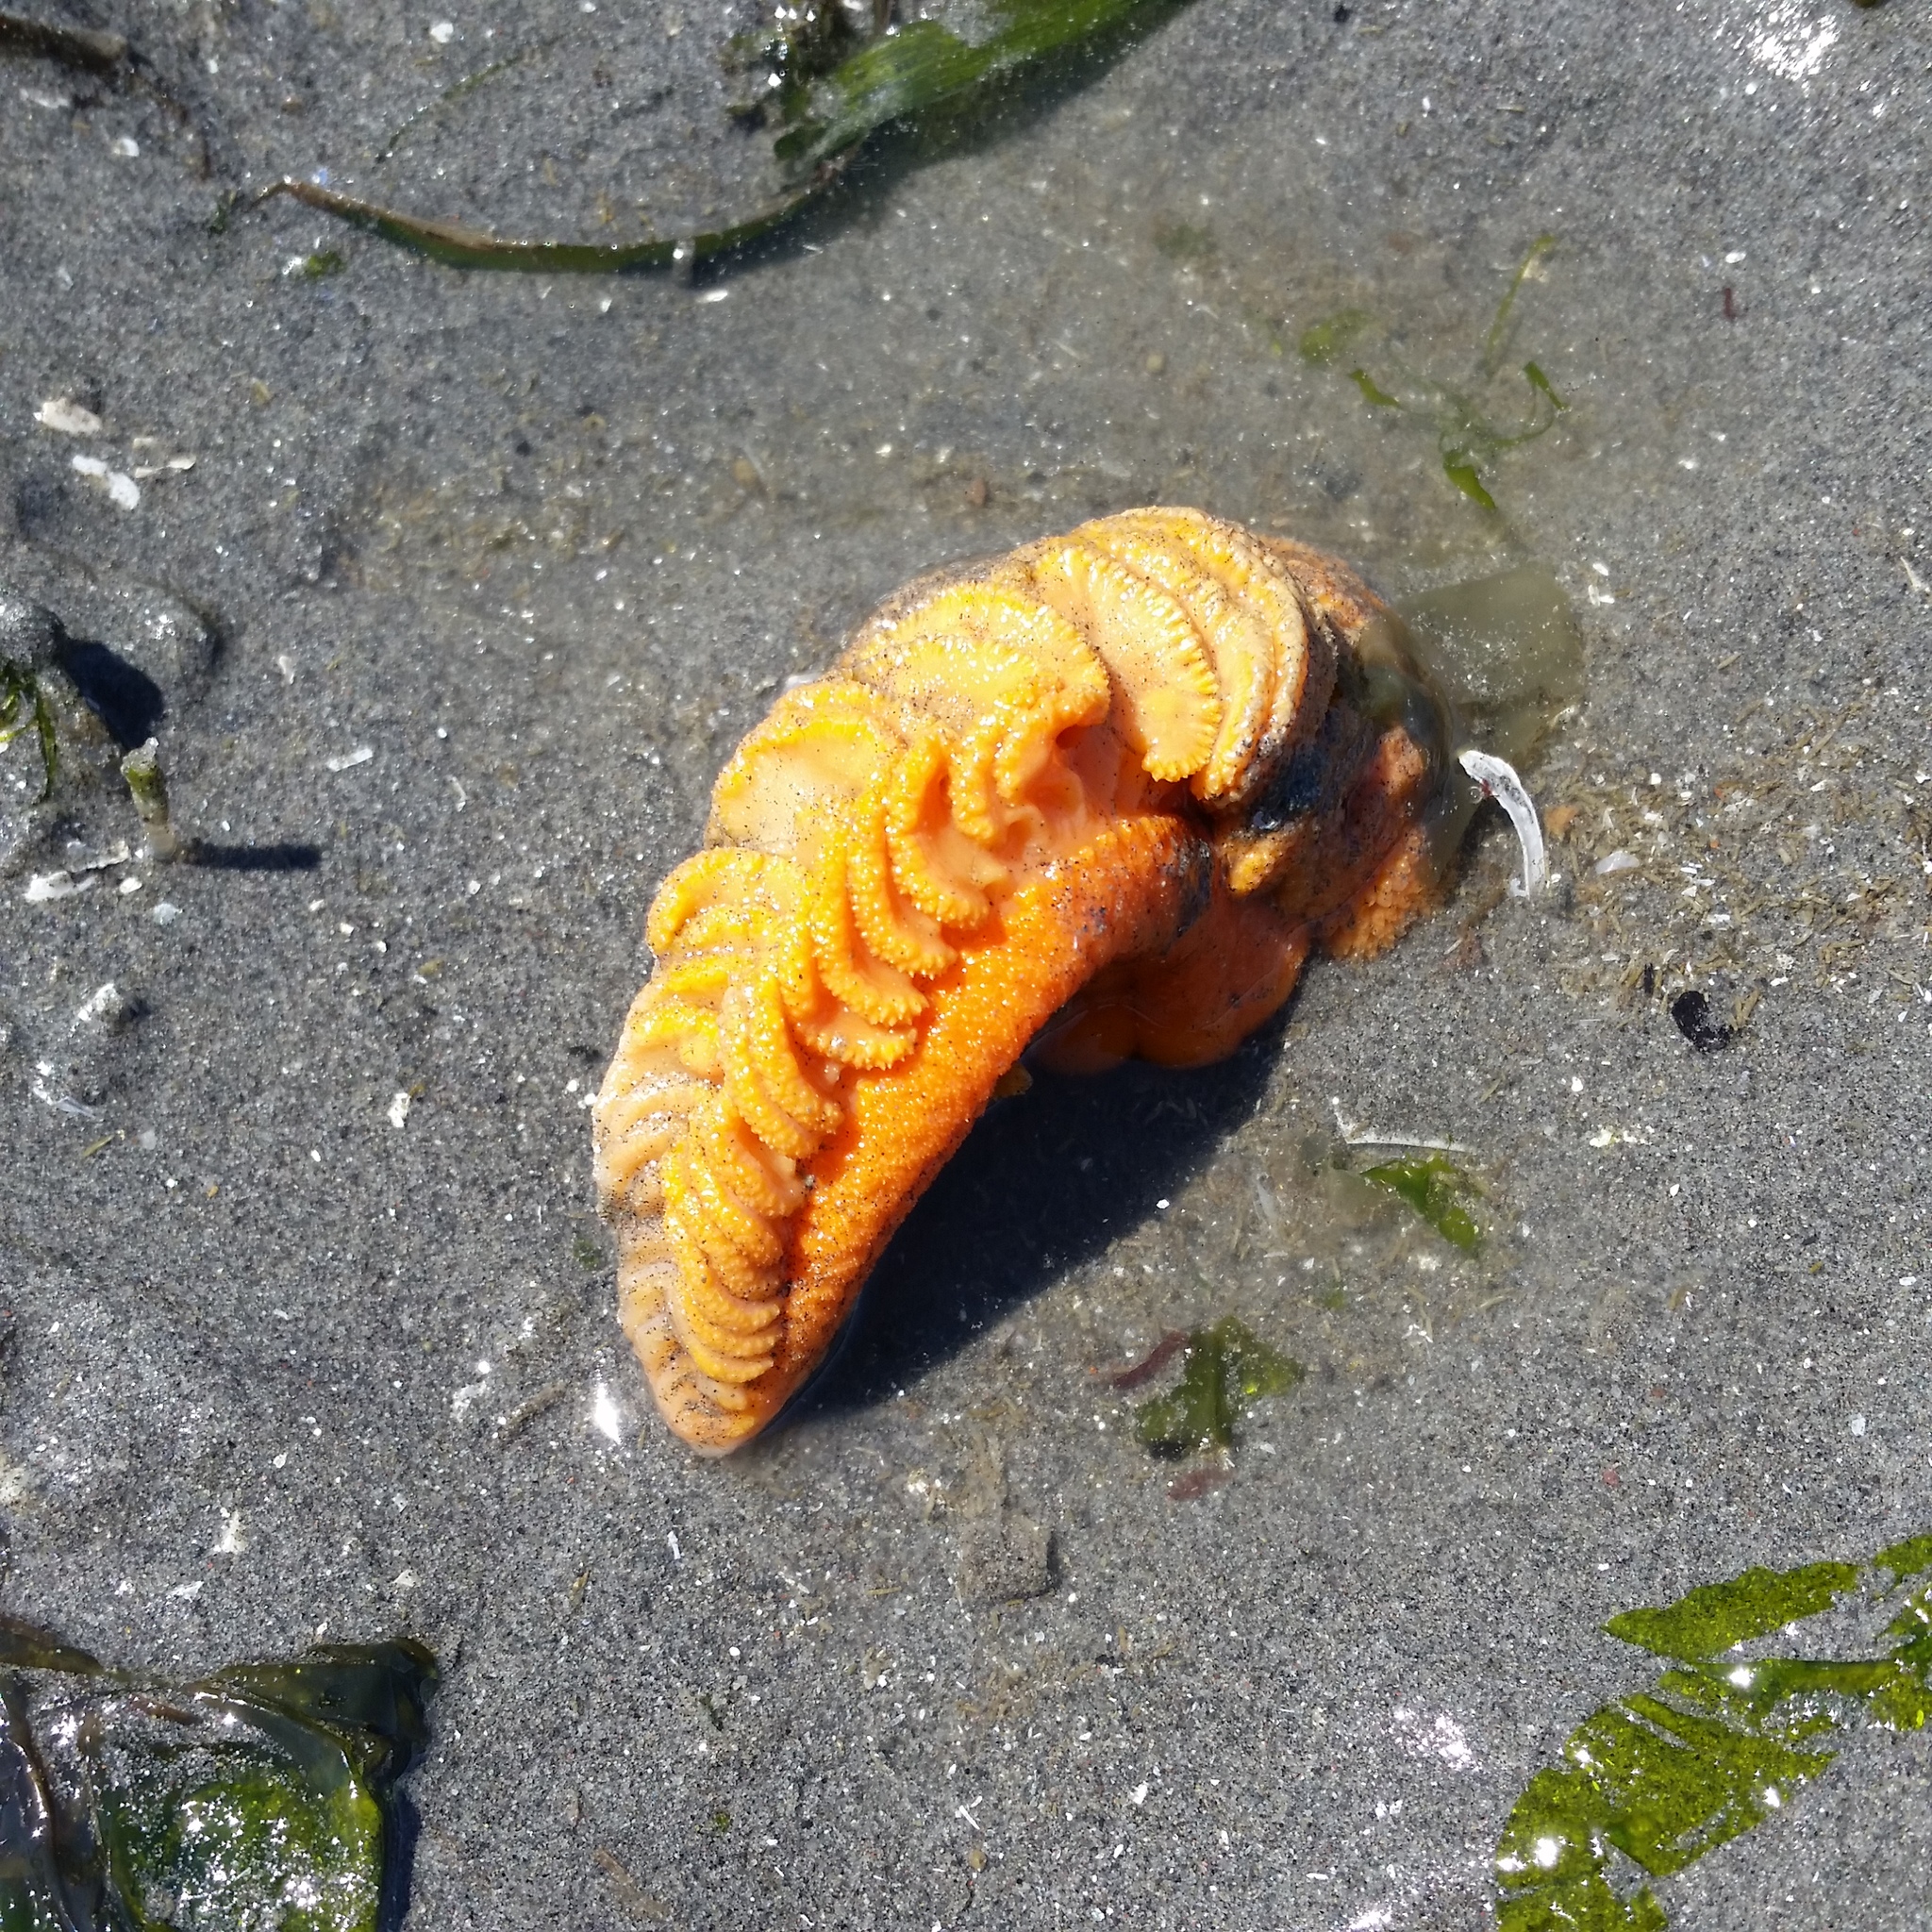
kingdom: Animalia
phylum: Cnidaria
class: Anthozoa
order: Scleralcyonacea
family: Pennatulidae
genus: Ptilosarcus
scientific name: Ptilosarcus gurneyi
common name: Gurney's sea pen
